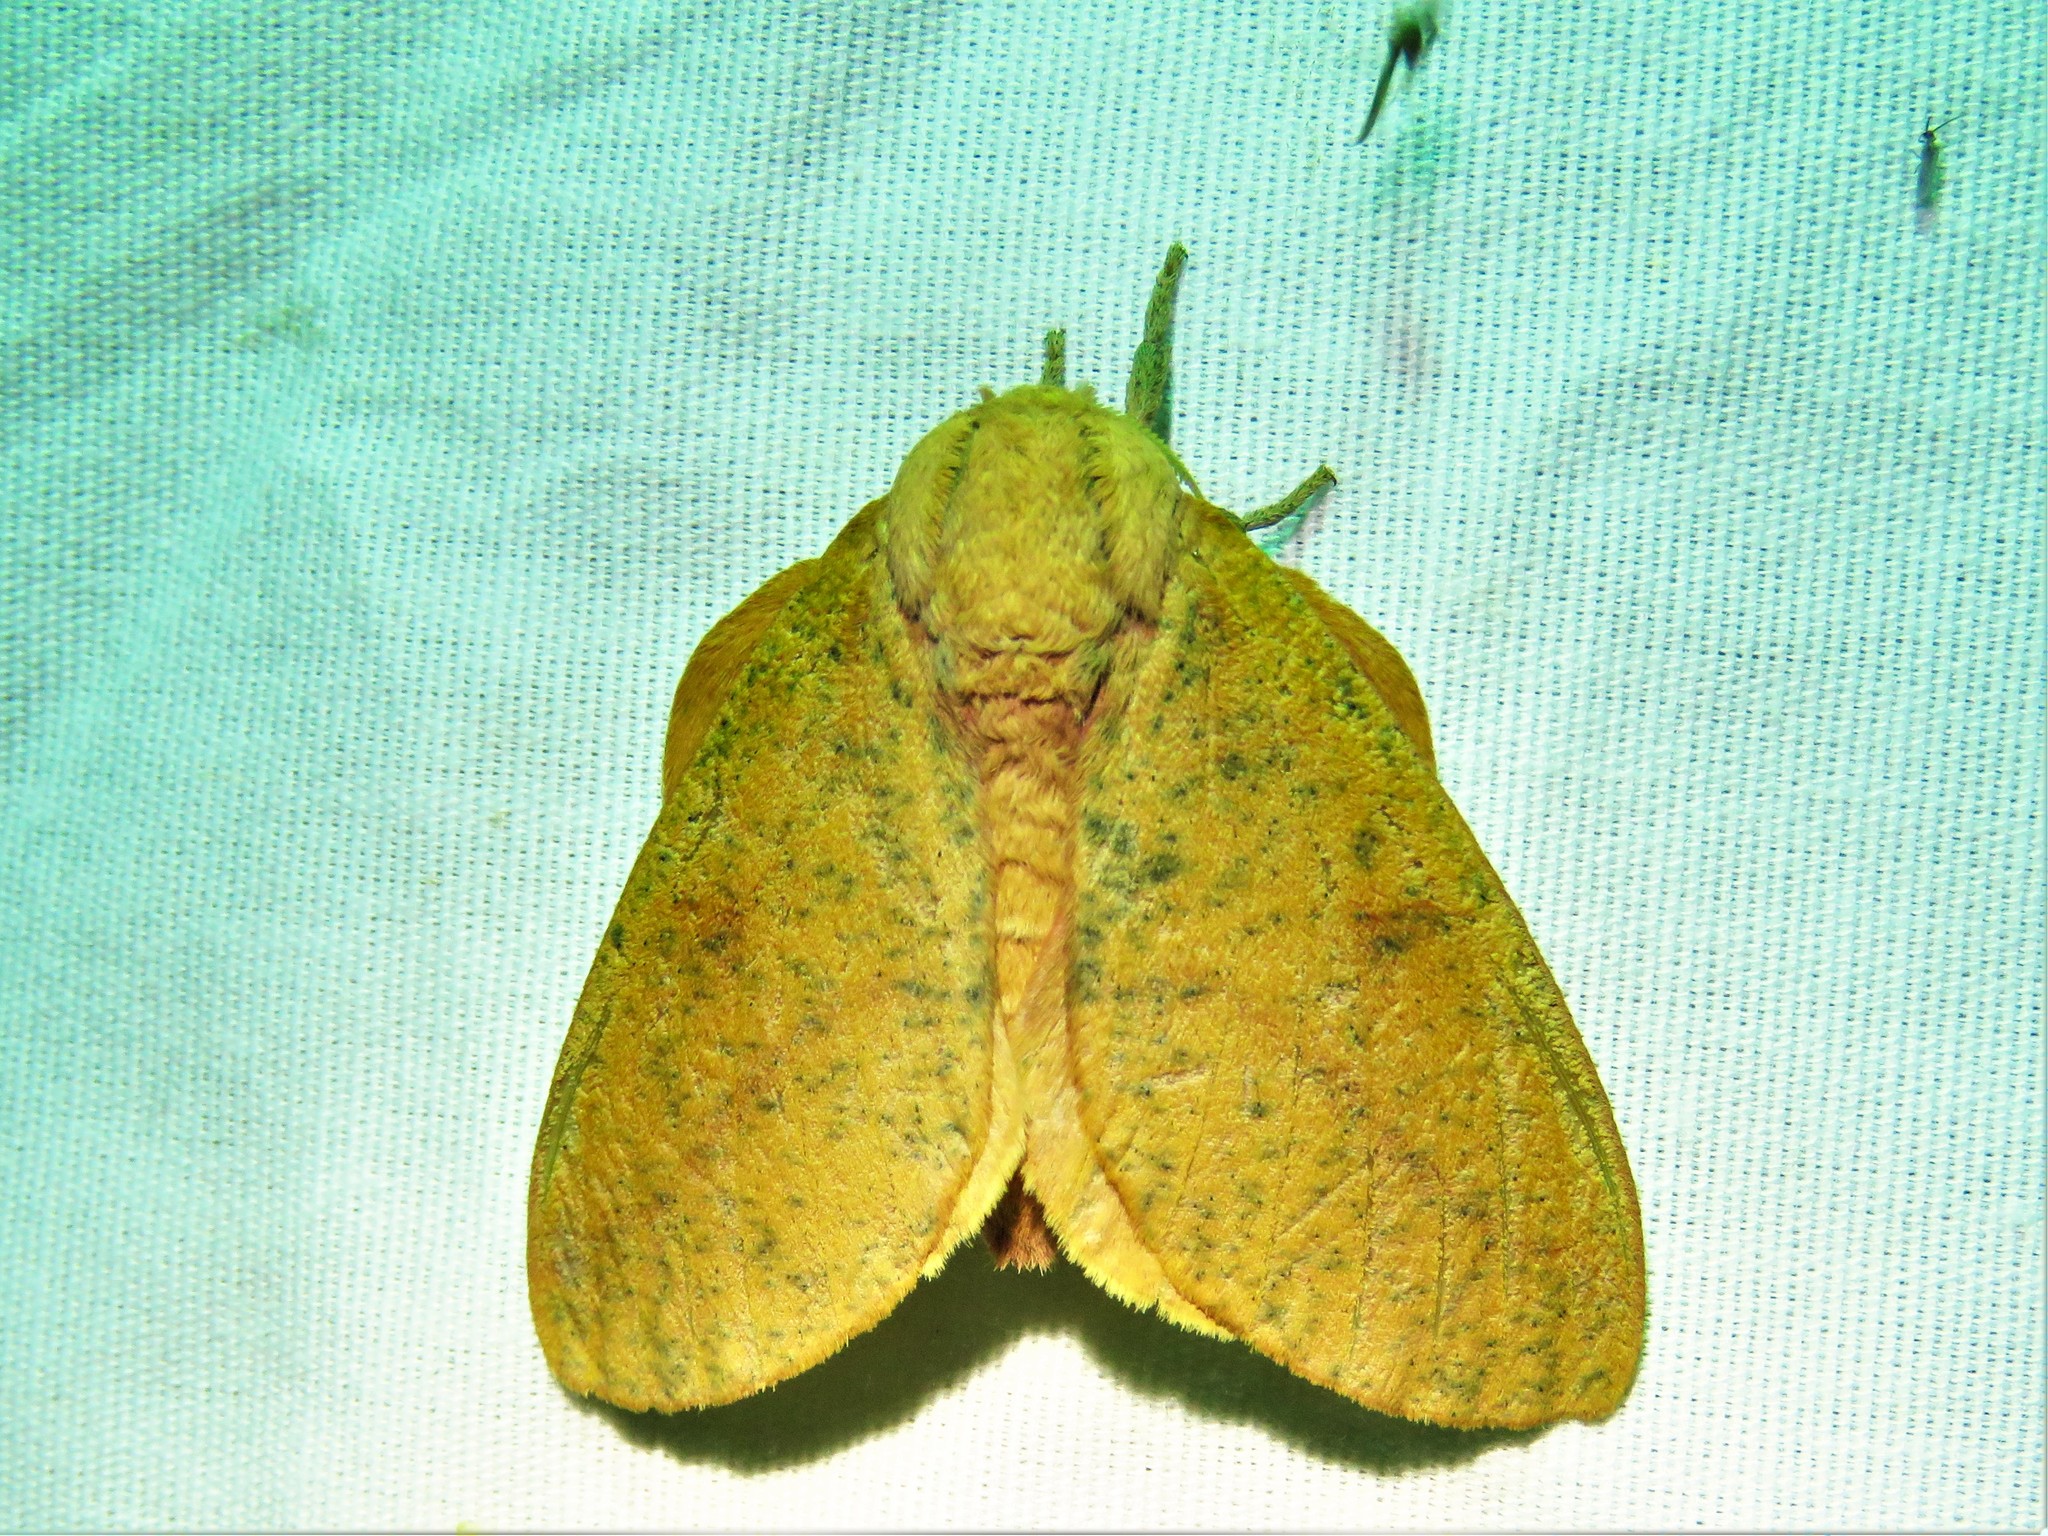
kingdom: Animalia
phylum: Arthropoda
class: Insecta
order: Lepidoptera
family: Saturniidae
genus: Syssphinx
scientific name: Syssphinx bicolor
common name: Honey locust moth
